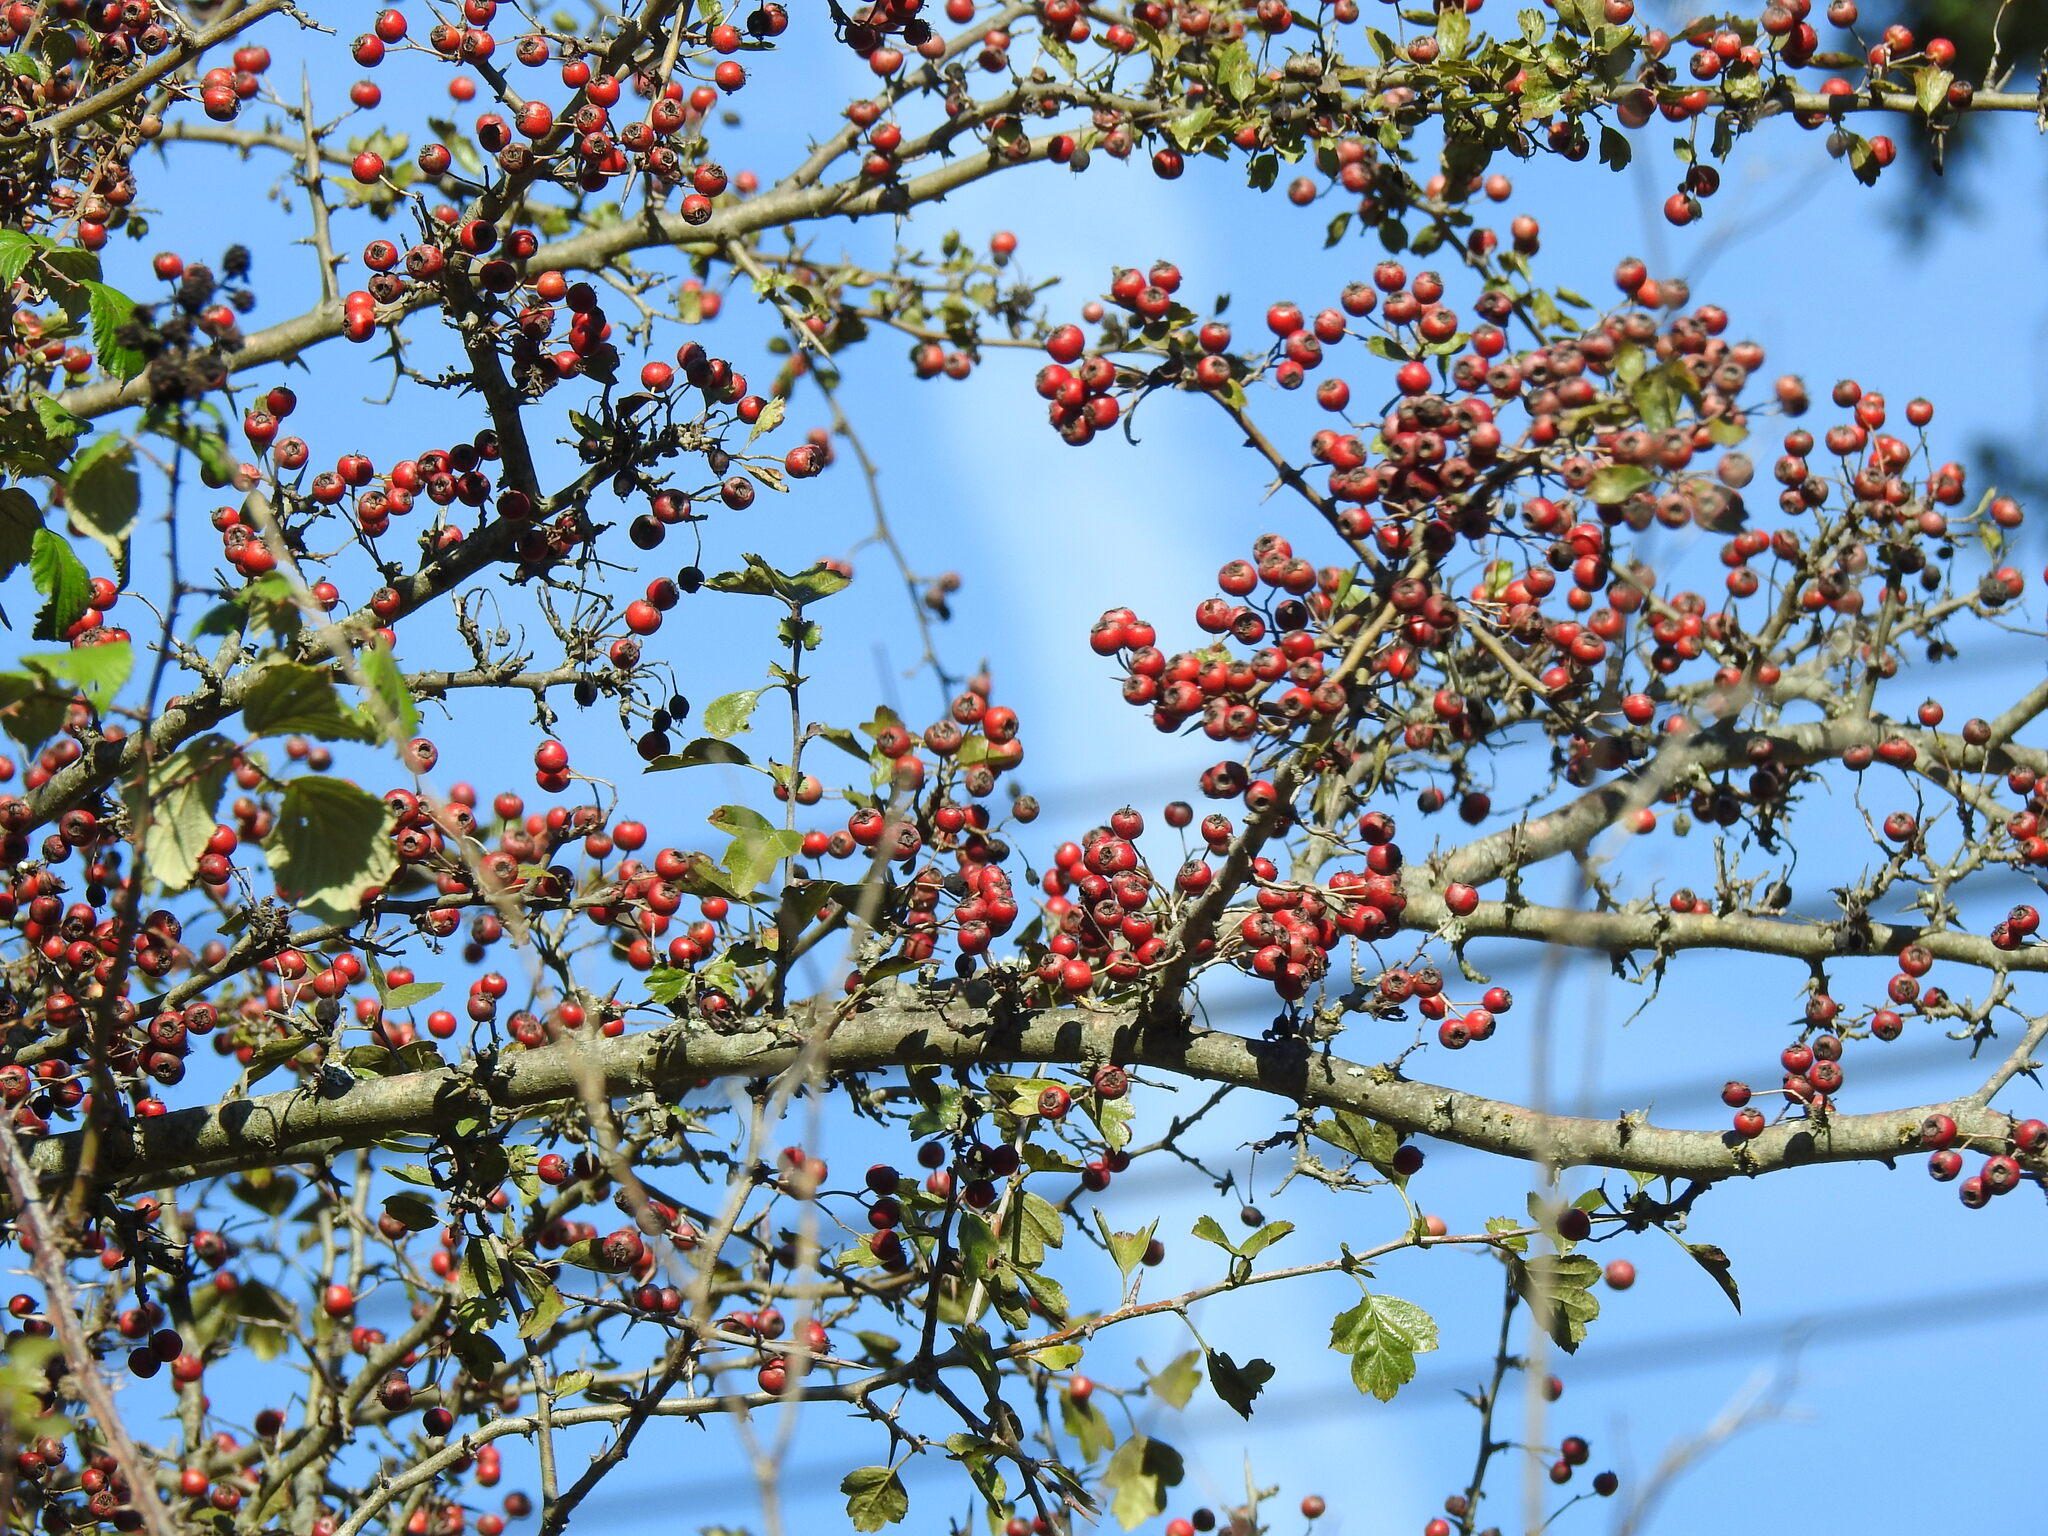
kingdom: Plantae
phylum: Tracheophyta
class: Magnoliopsida
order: Rosales
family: Rosaceae
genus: Crataegus
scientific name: Crataegus monogyna
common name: Hawthorn
